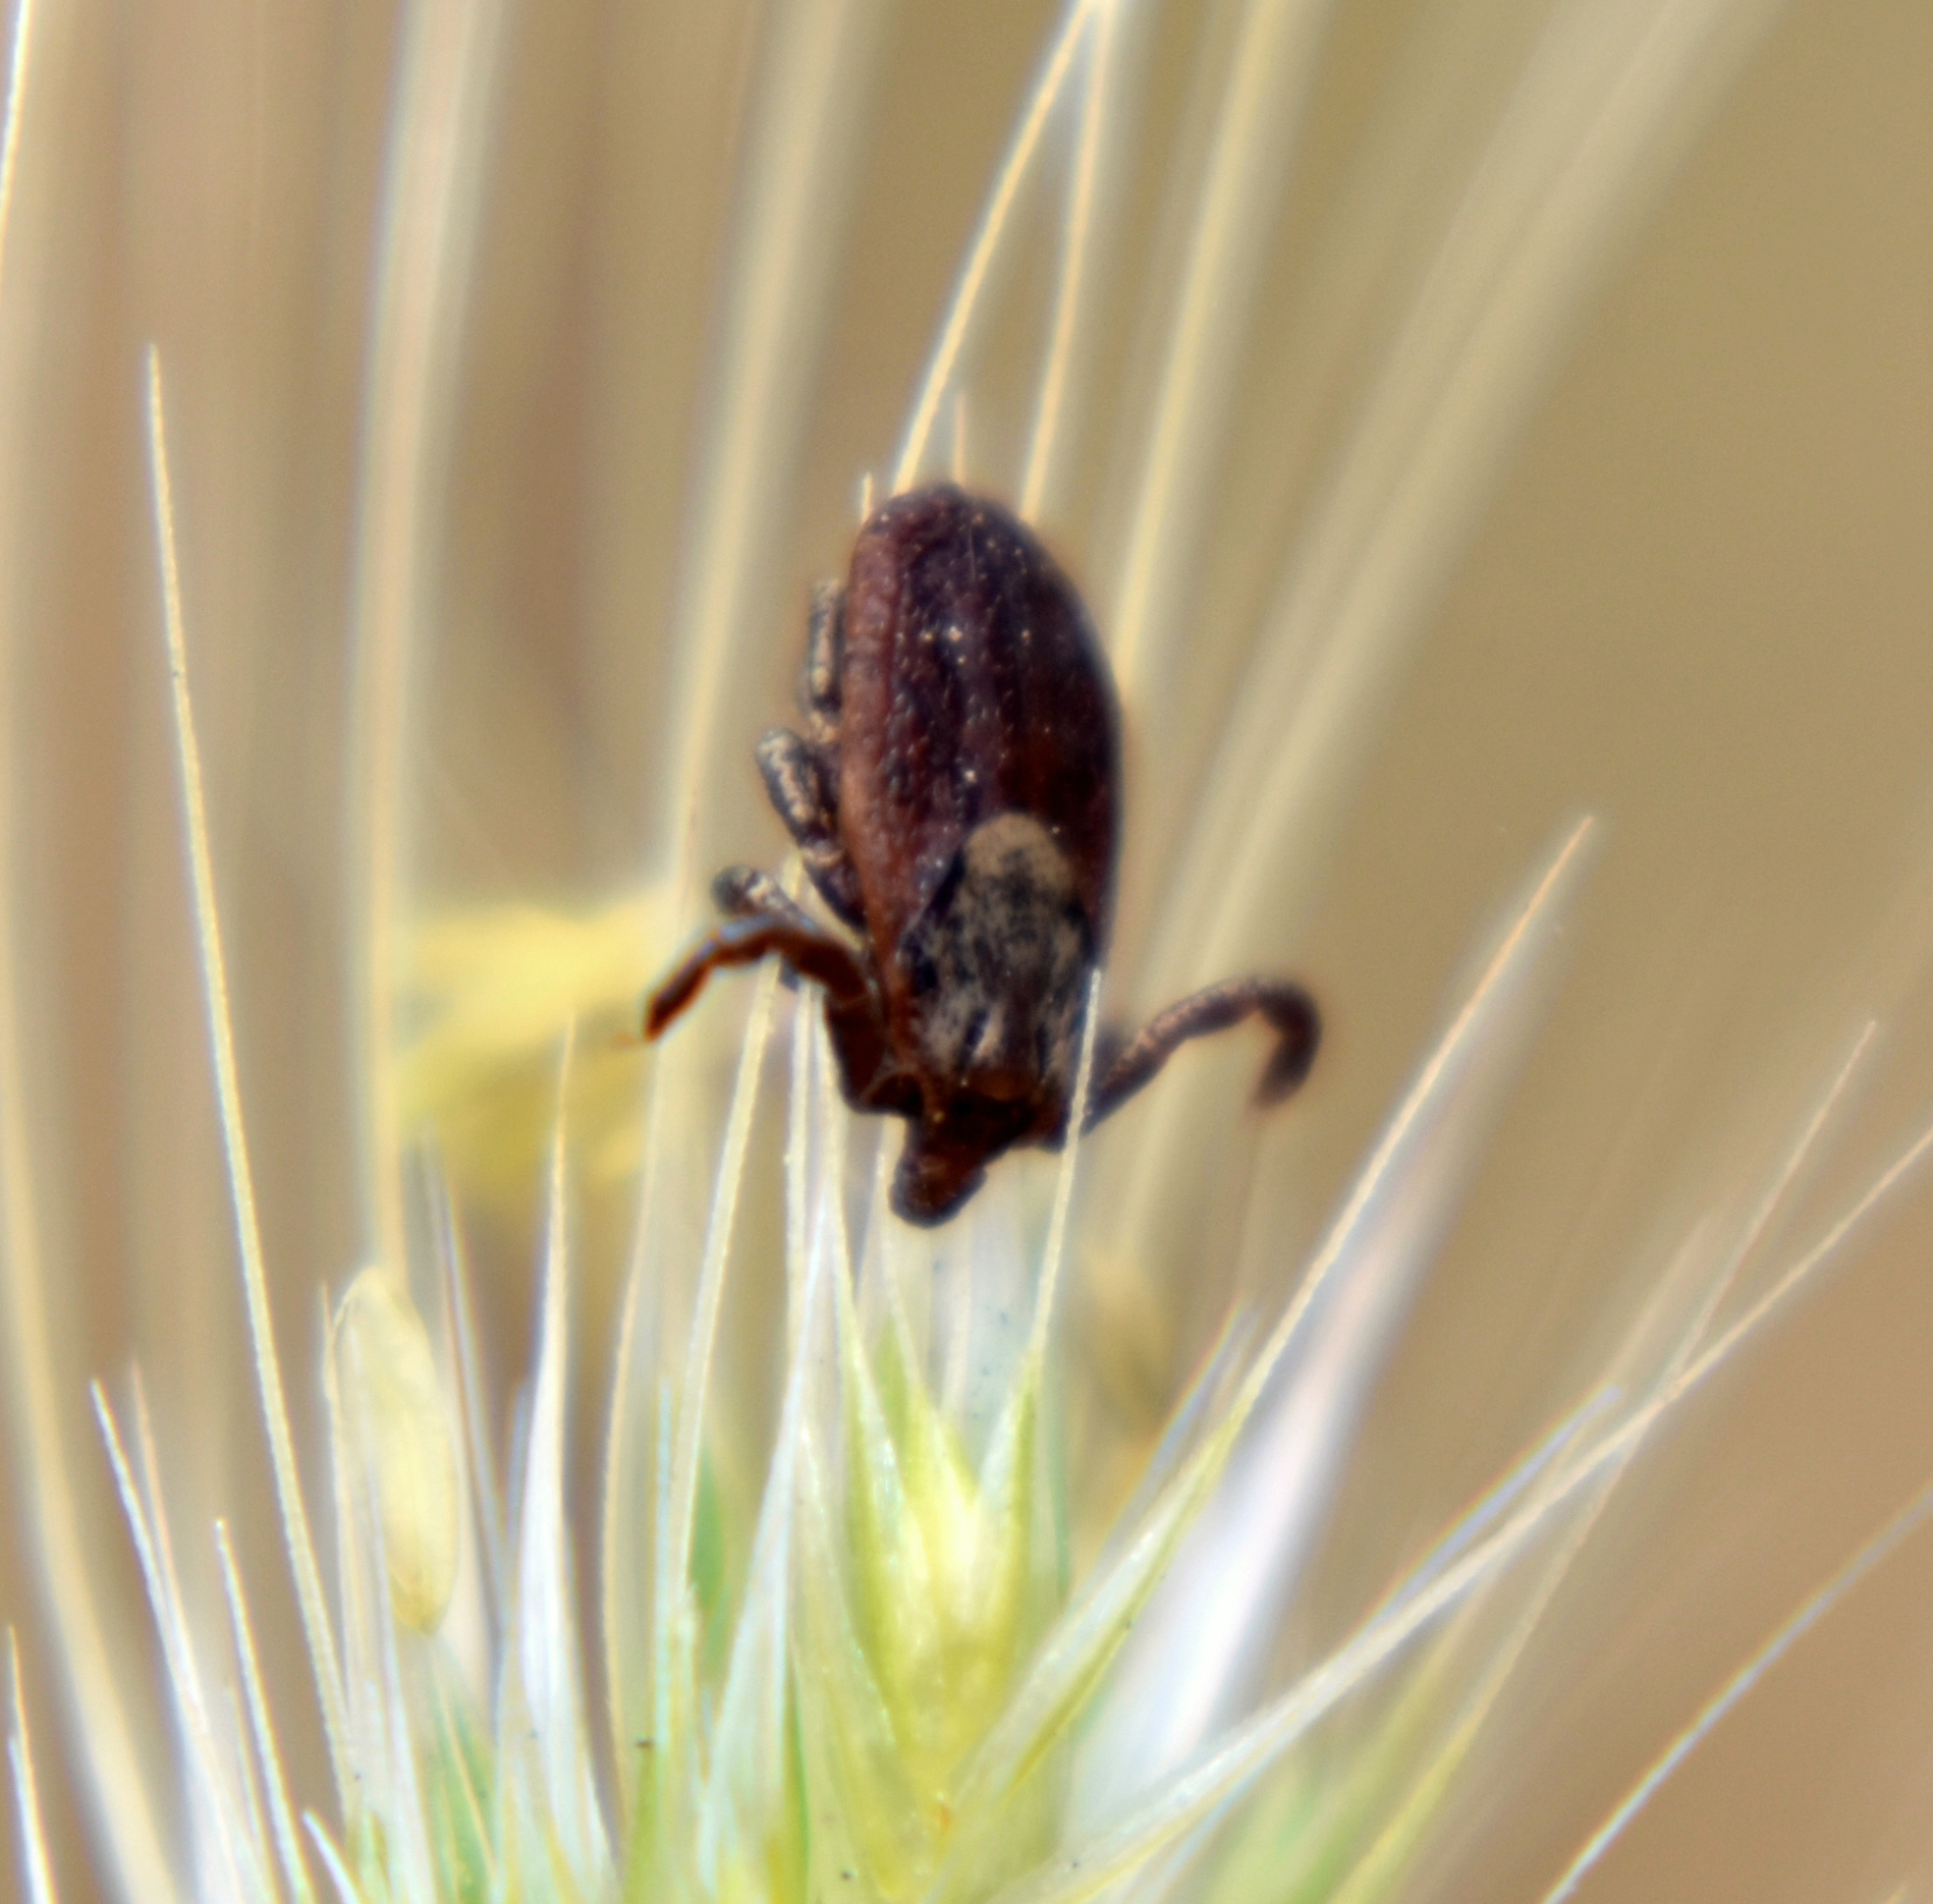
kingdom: Animalia
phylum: Arthropoda
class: Arachnida
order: Ixodida
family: Ixodidae
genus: Dermacentor
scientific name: Dermacentor occidentalis
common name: Net tick
